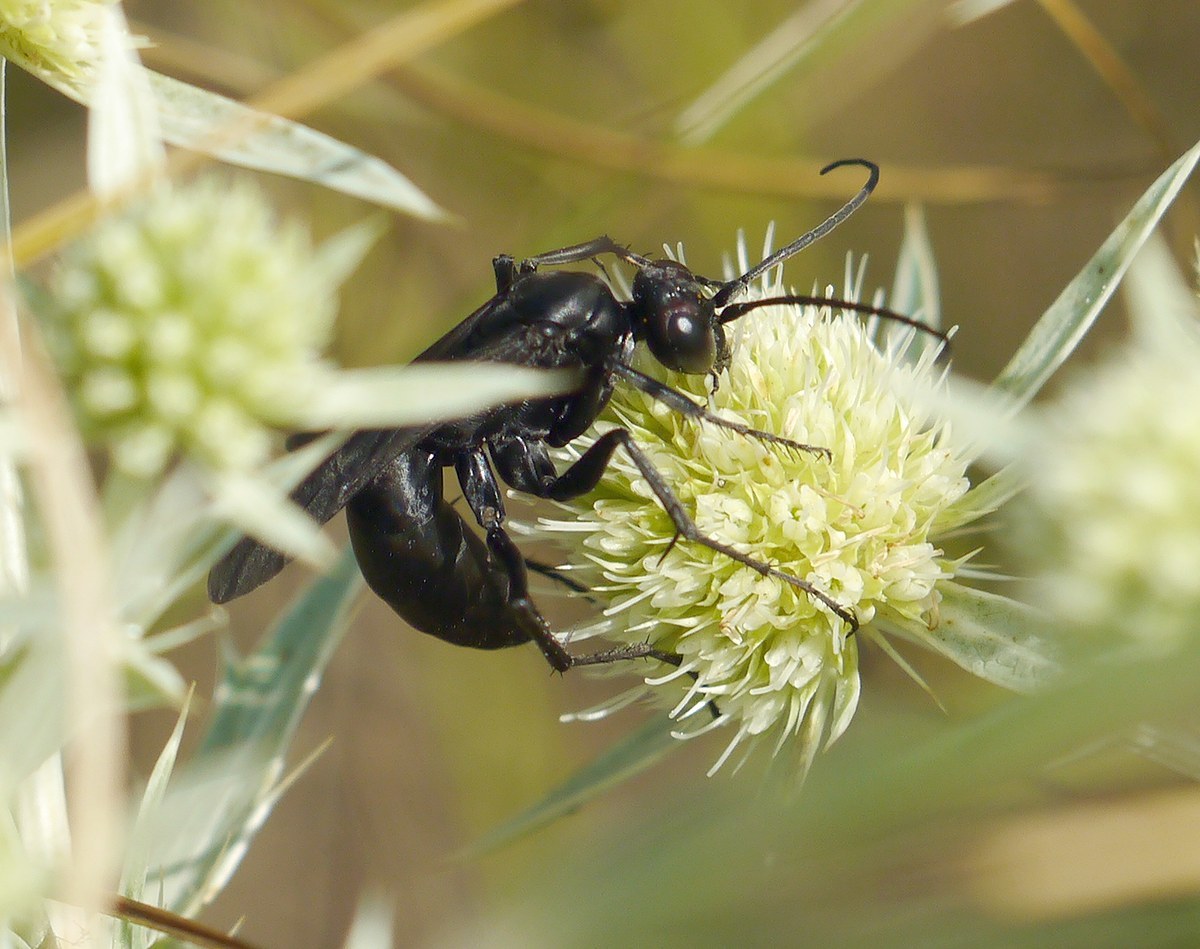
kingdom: Animalia
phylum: Arthropoda
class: Insecta
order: Hymenoptera
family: Pompilidae
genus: Agenioideus
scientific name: Agenioideus excisus
